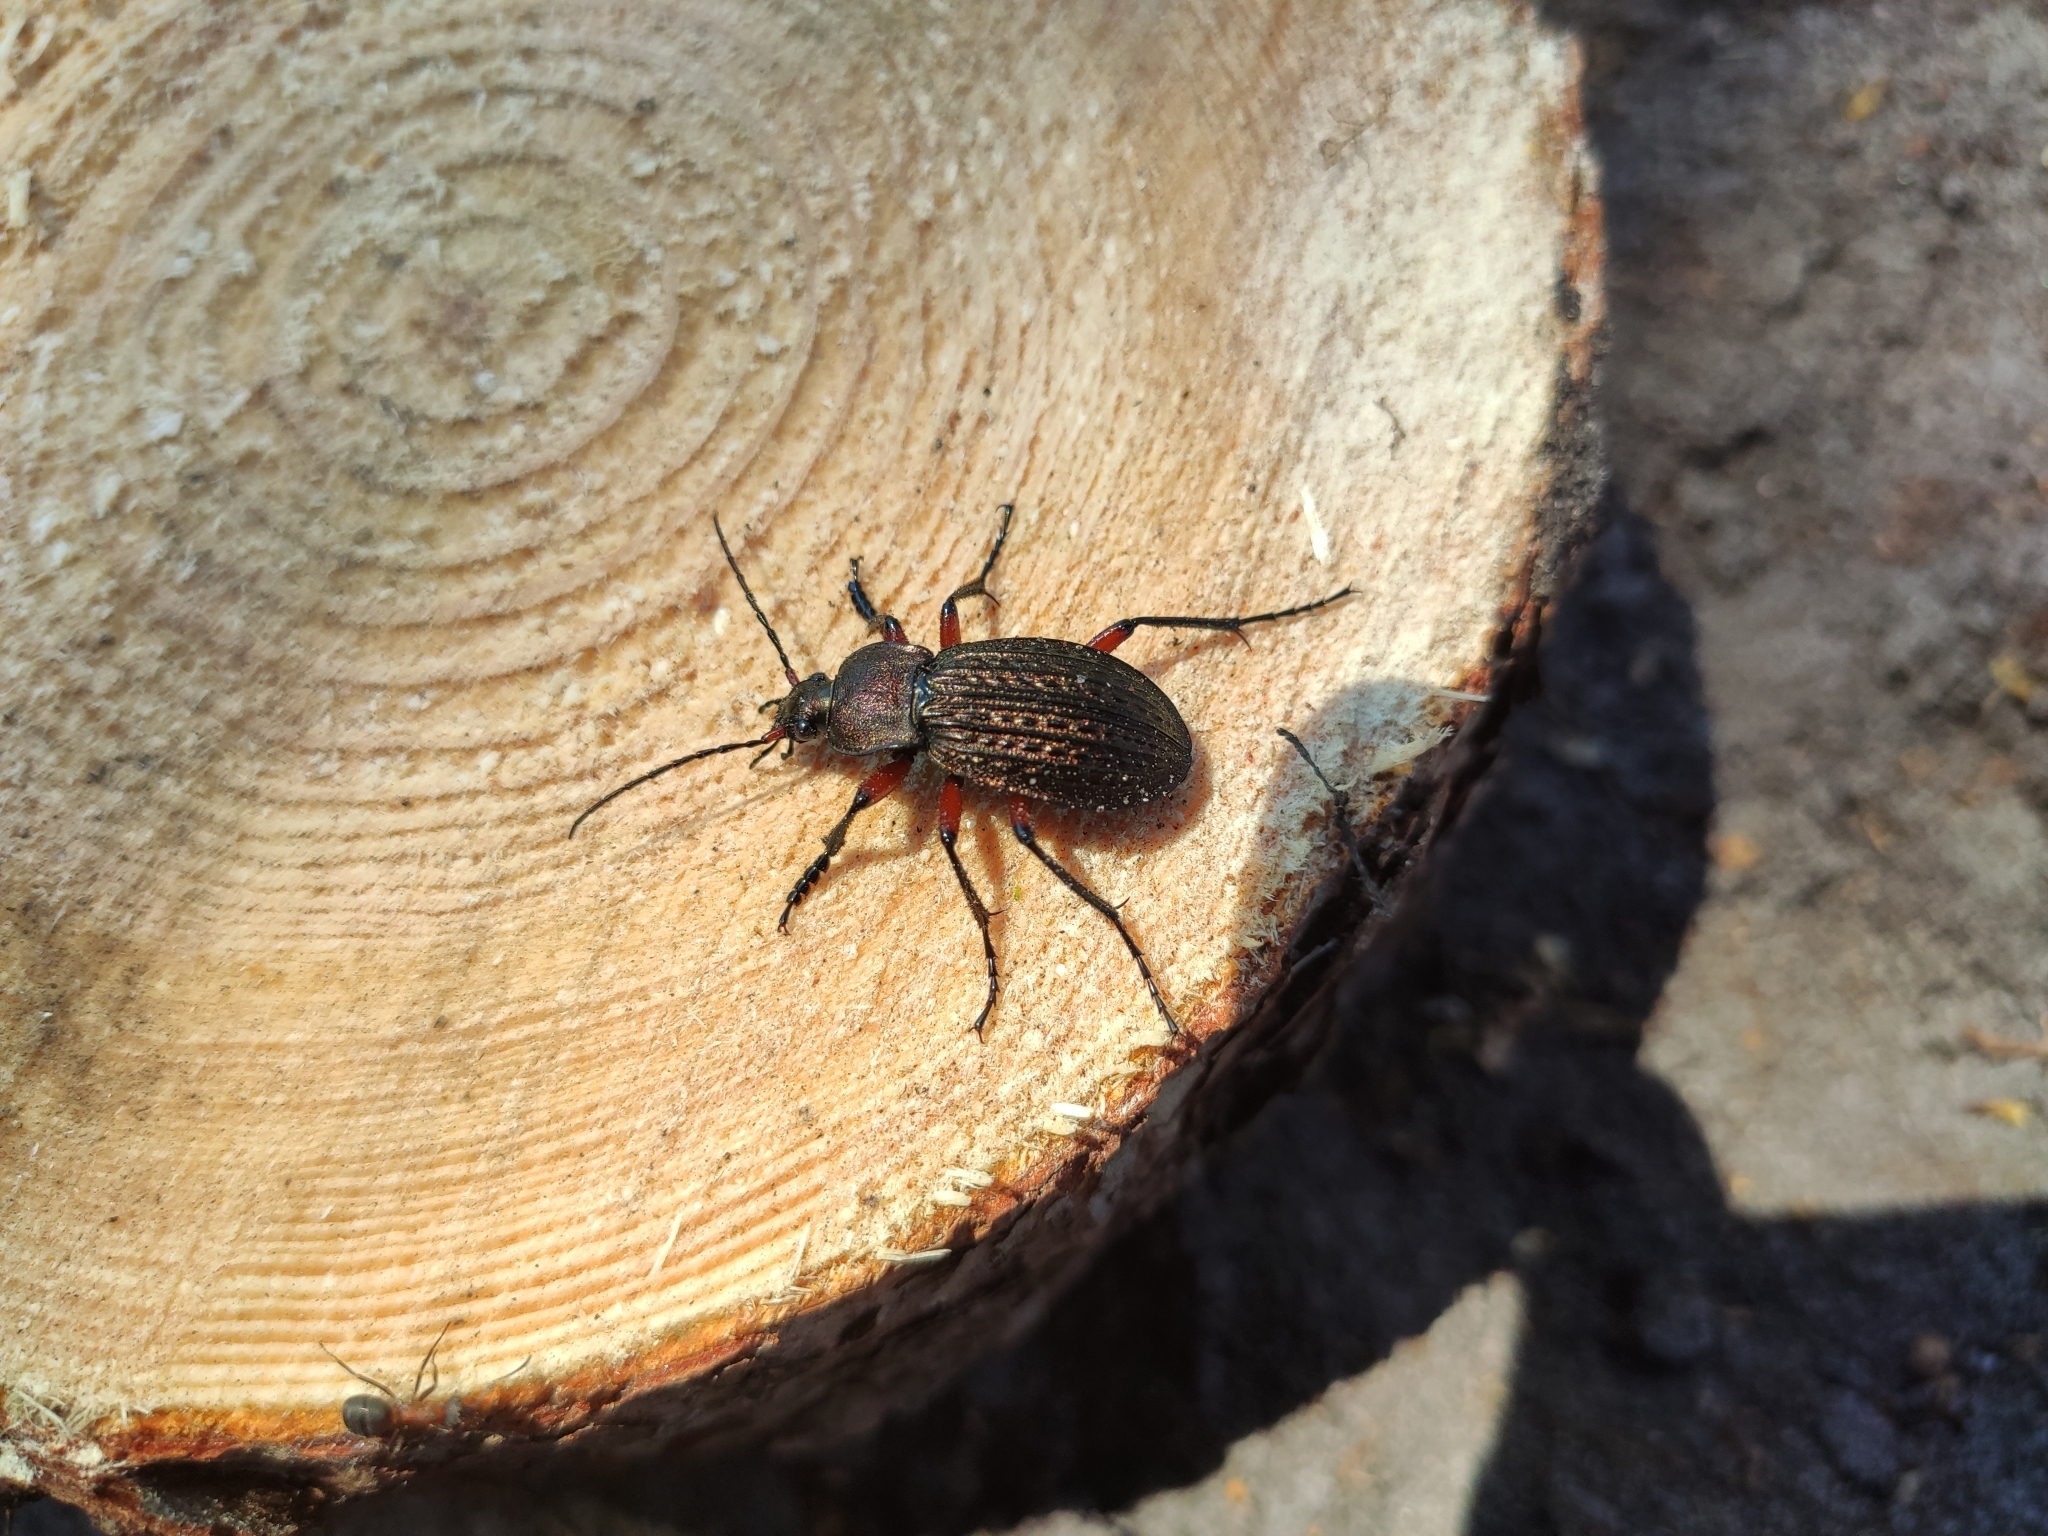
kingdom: Animalia
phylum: Arthropoda
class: Insecta
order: Coleoptera
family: Carabidae
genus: Carabus
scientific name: Carabus cancellatus
